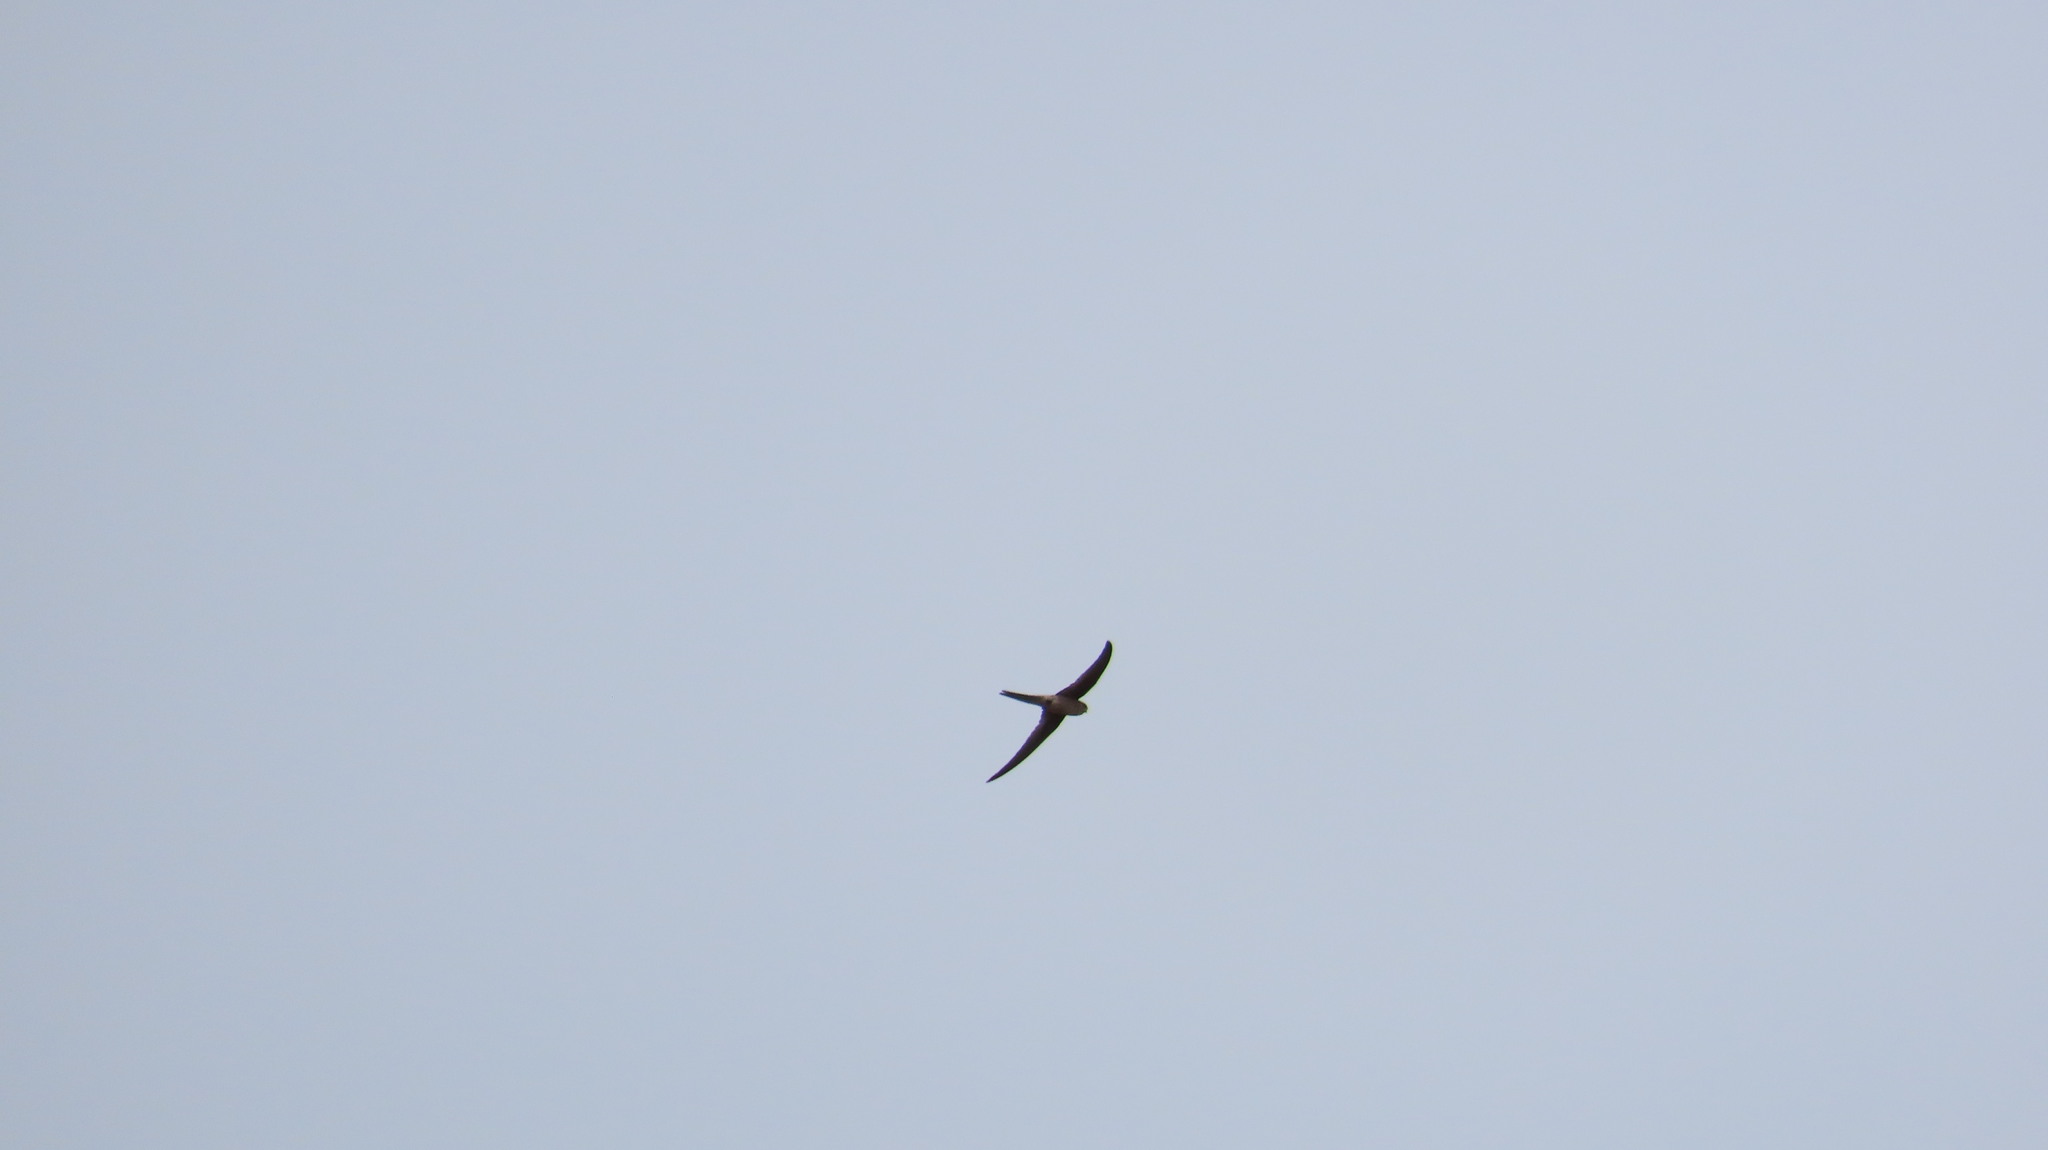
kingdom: Animalia
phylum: Chordata
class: Aves
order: Apodiformes
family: Apodidae
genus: Cypsiurus
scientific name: Cypsiurus balasiensis
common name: Asian palm swift
